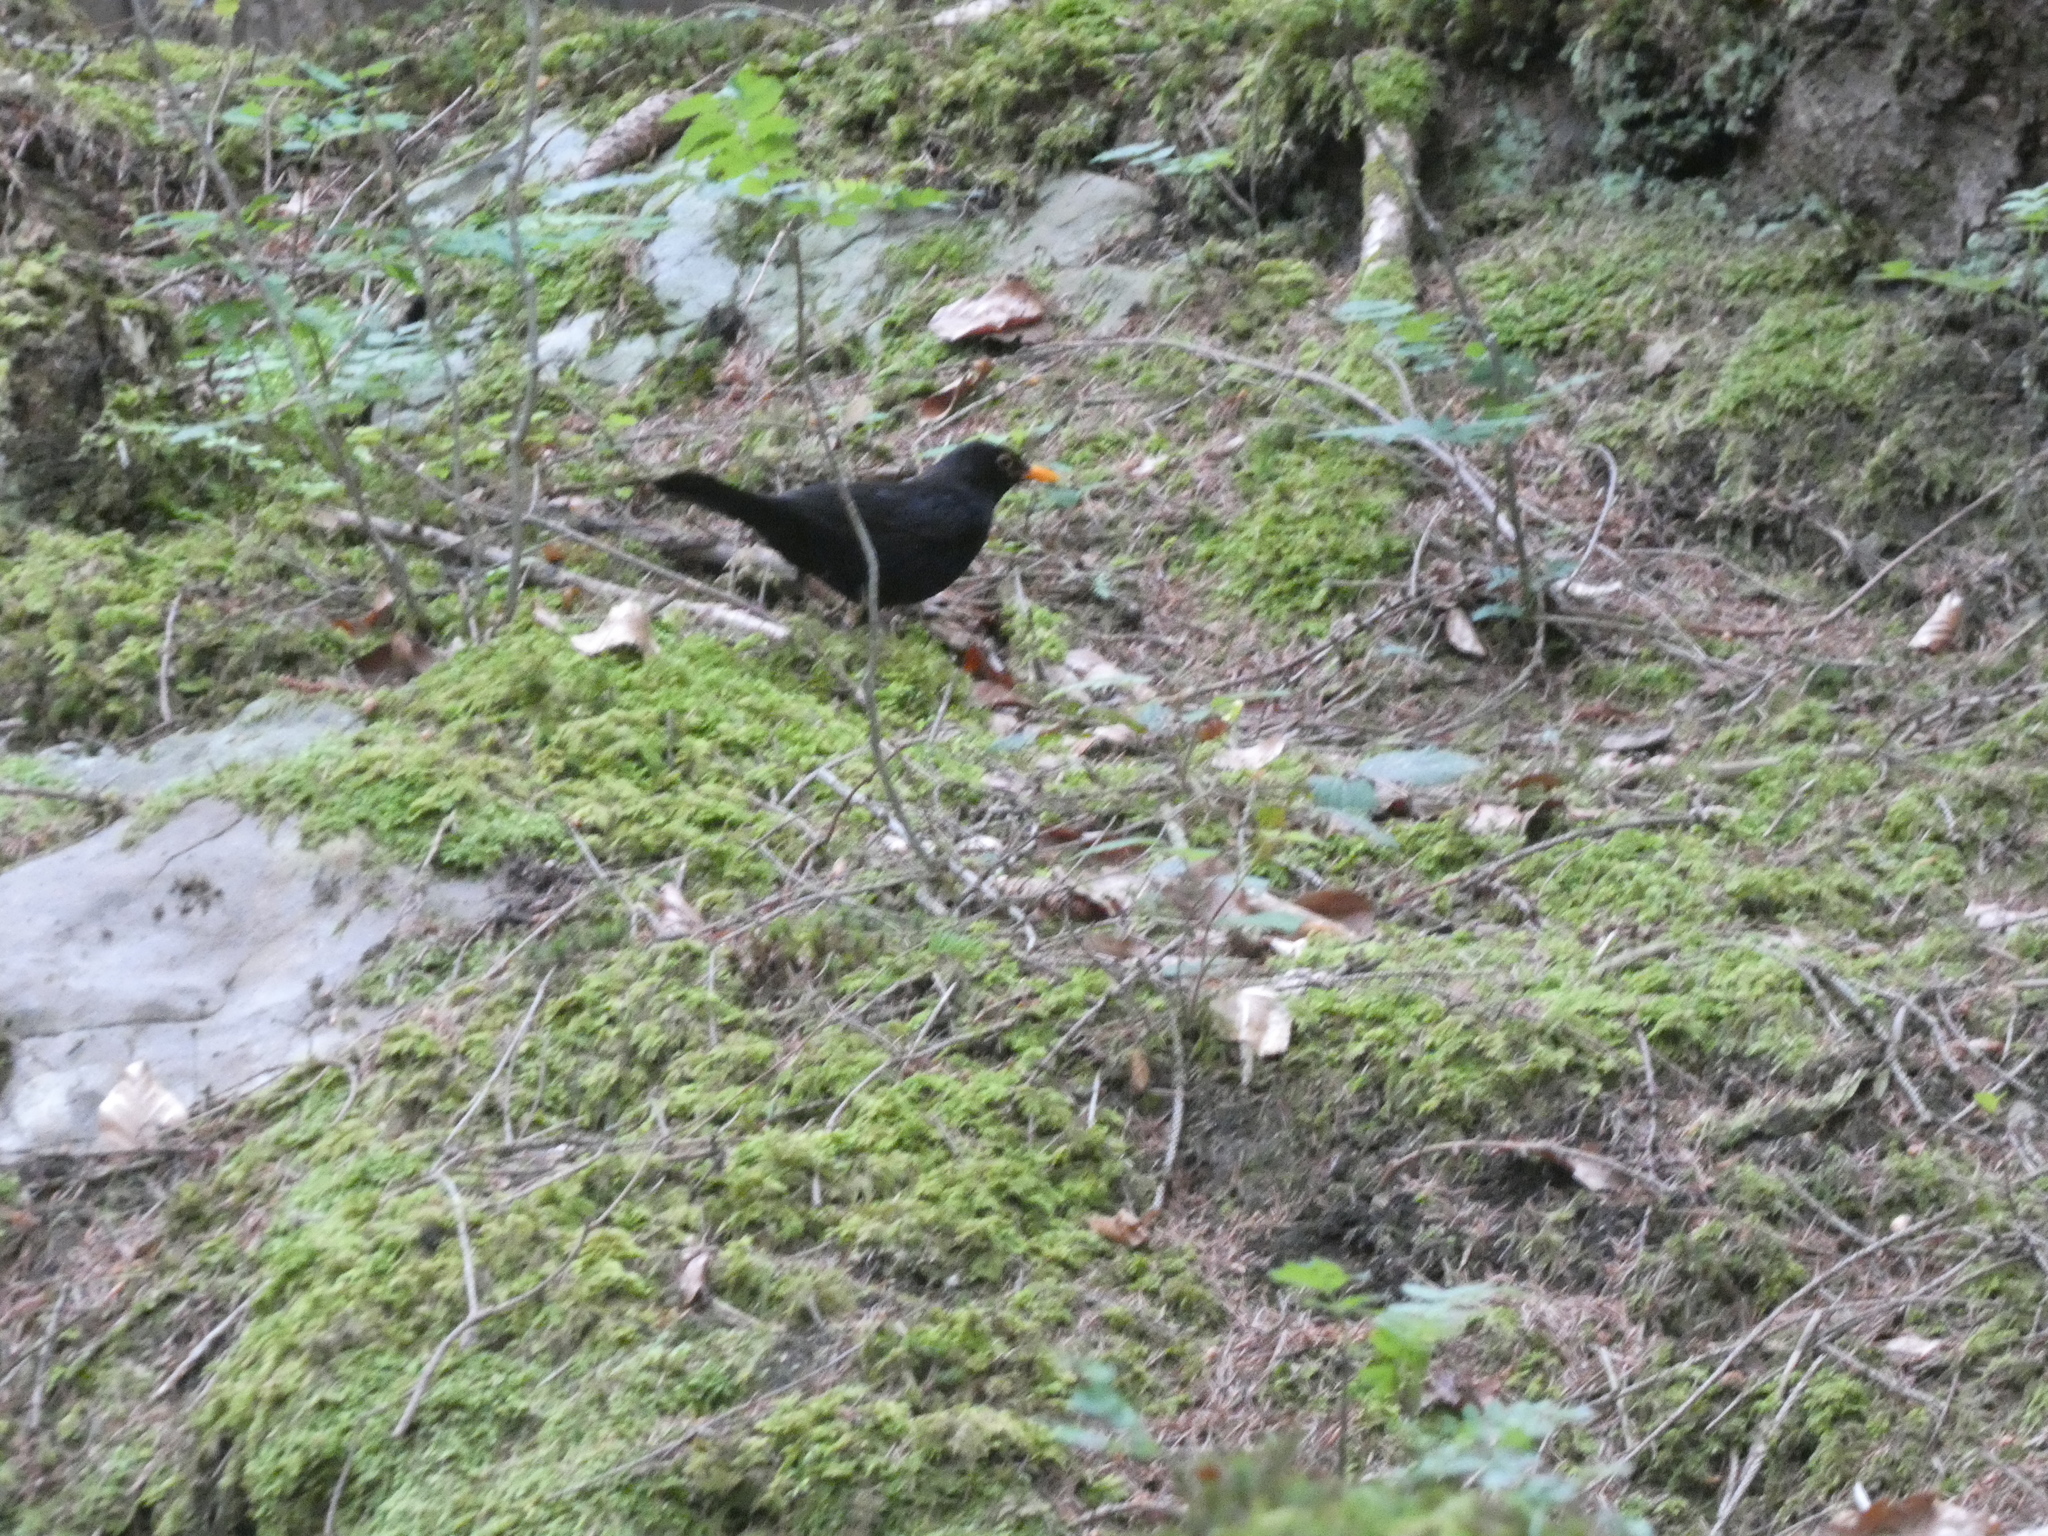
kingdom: Animalia
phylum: Chordata
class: Aves
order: Passeriformes
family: Turdidae
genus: Turdus
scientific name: Turdus merula
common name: Common blackbird
